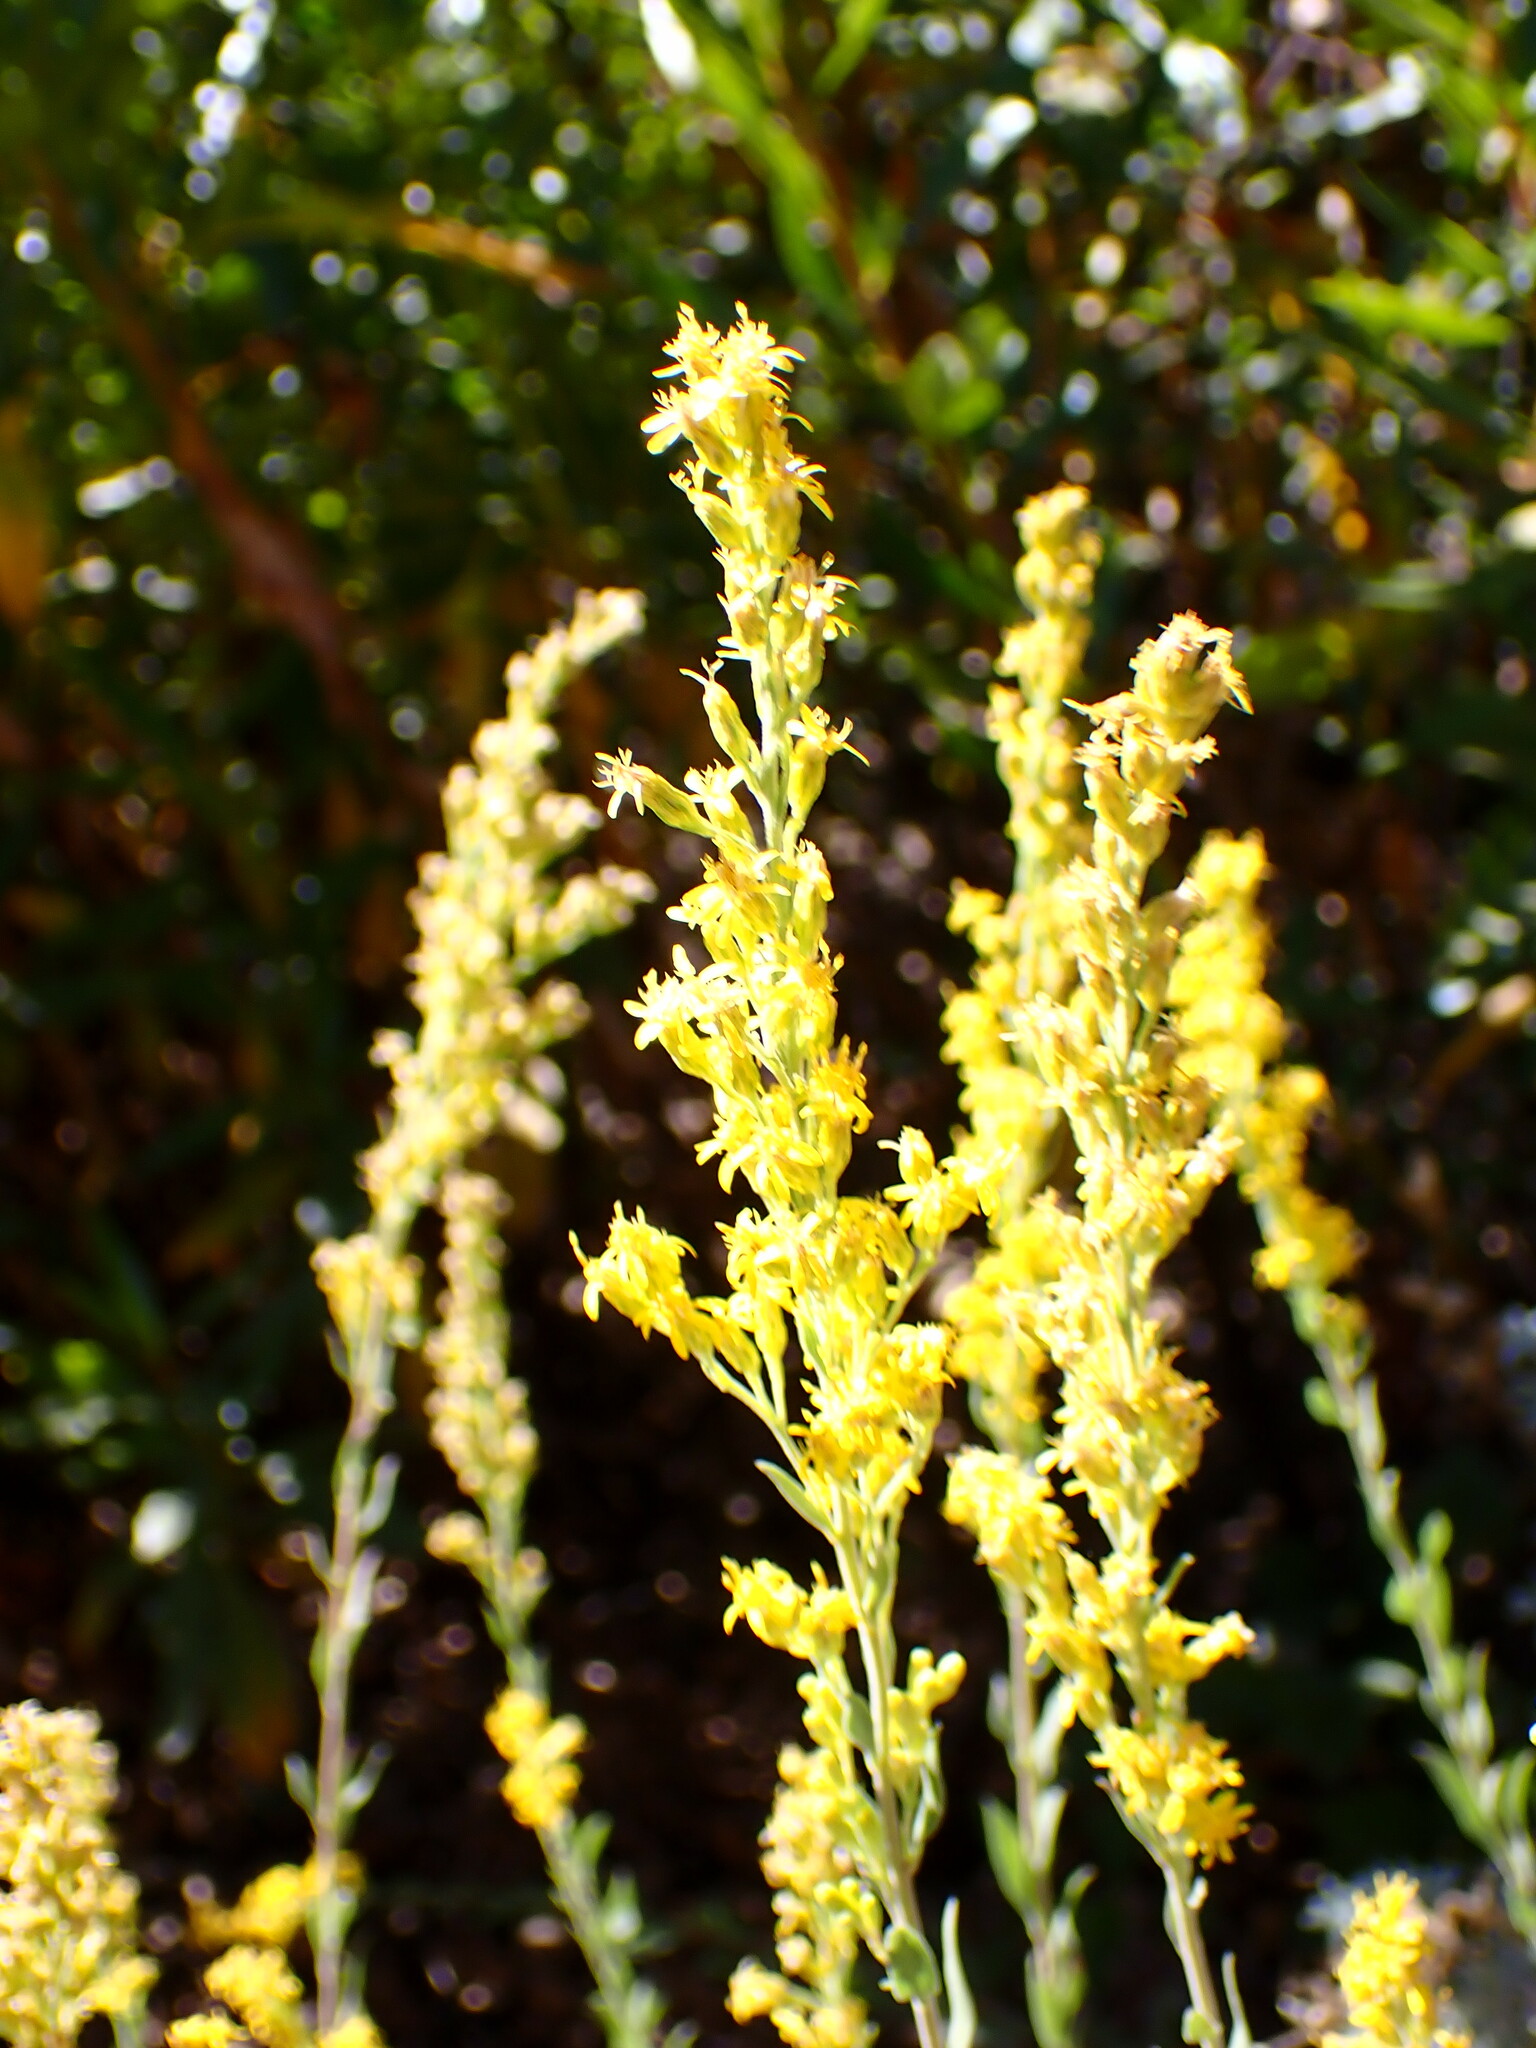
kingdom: Plantae
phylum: Tracheophyta
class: Magnoliopsida
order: Asterales
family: Asteraceae
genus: Solidago
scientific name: Solidago velutina
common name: Three-nerve goldenrod
